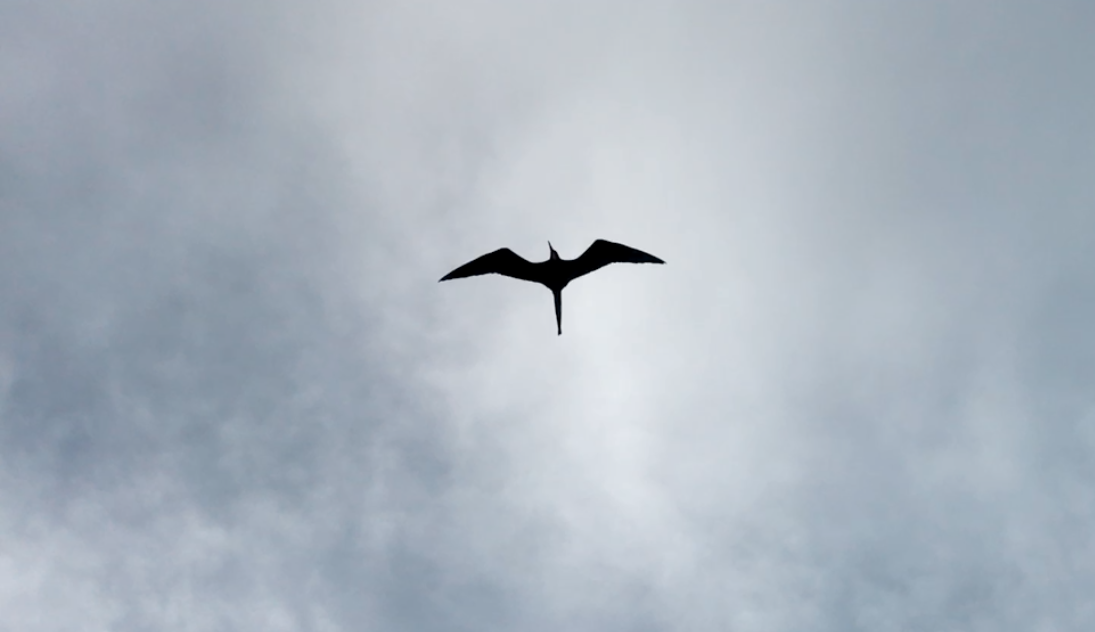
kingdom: Animalia
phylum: Chordata
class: Aves
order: Suliformes
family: Fregatidae
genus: Fregata
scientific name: Fregata magnificens
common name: Magnificent frigatebird
